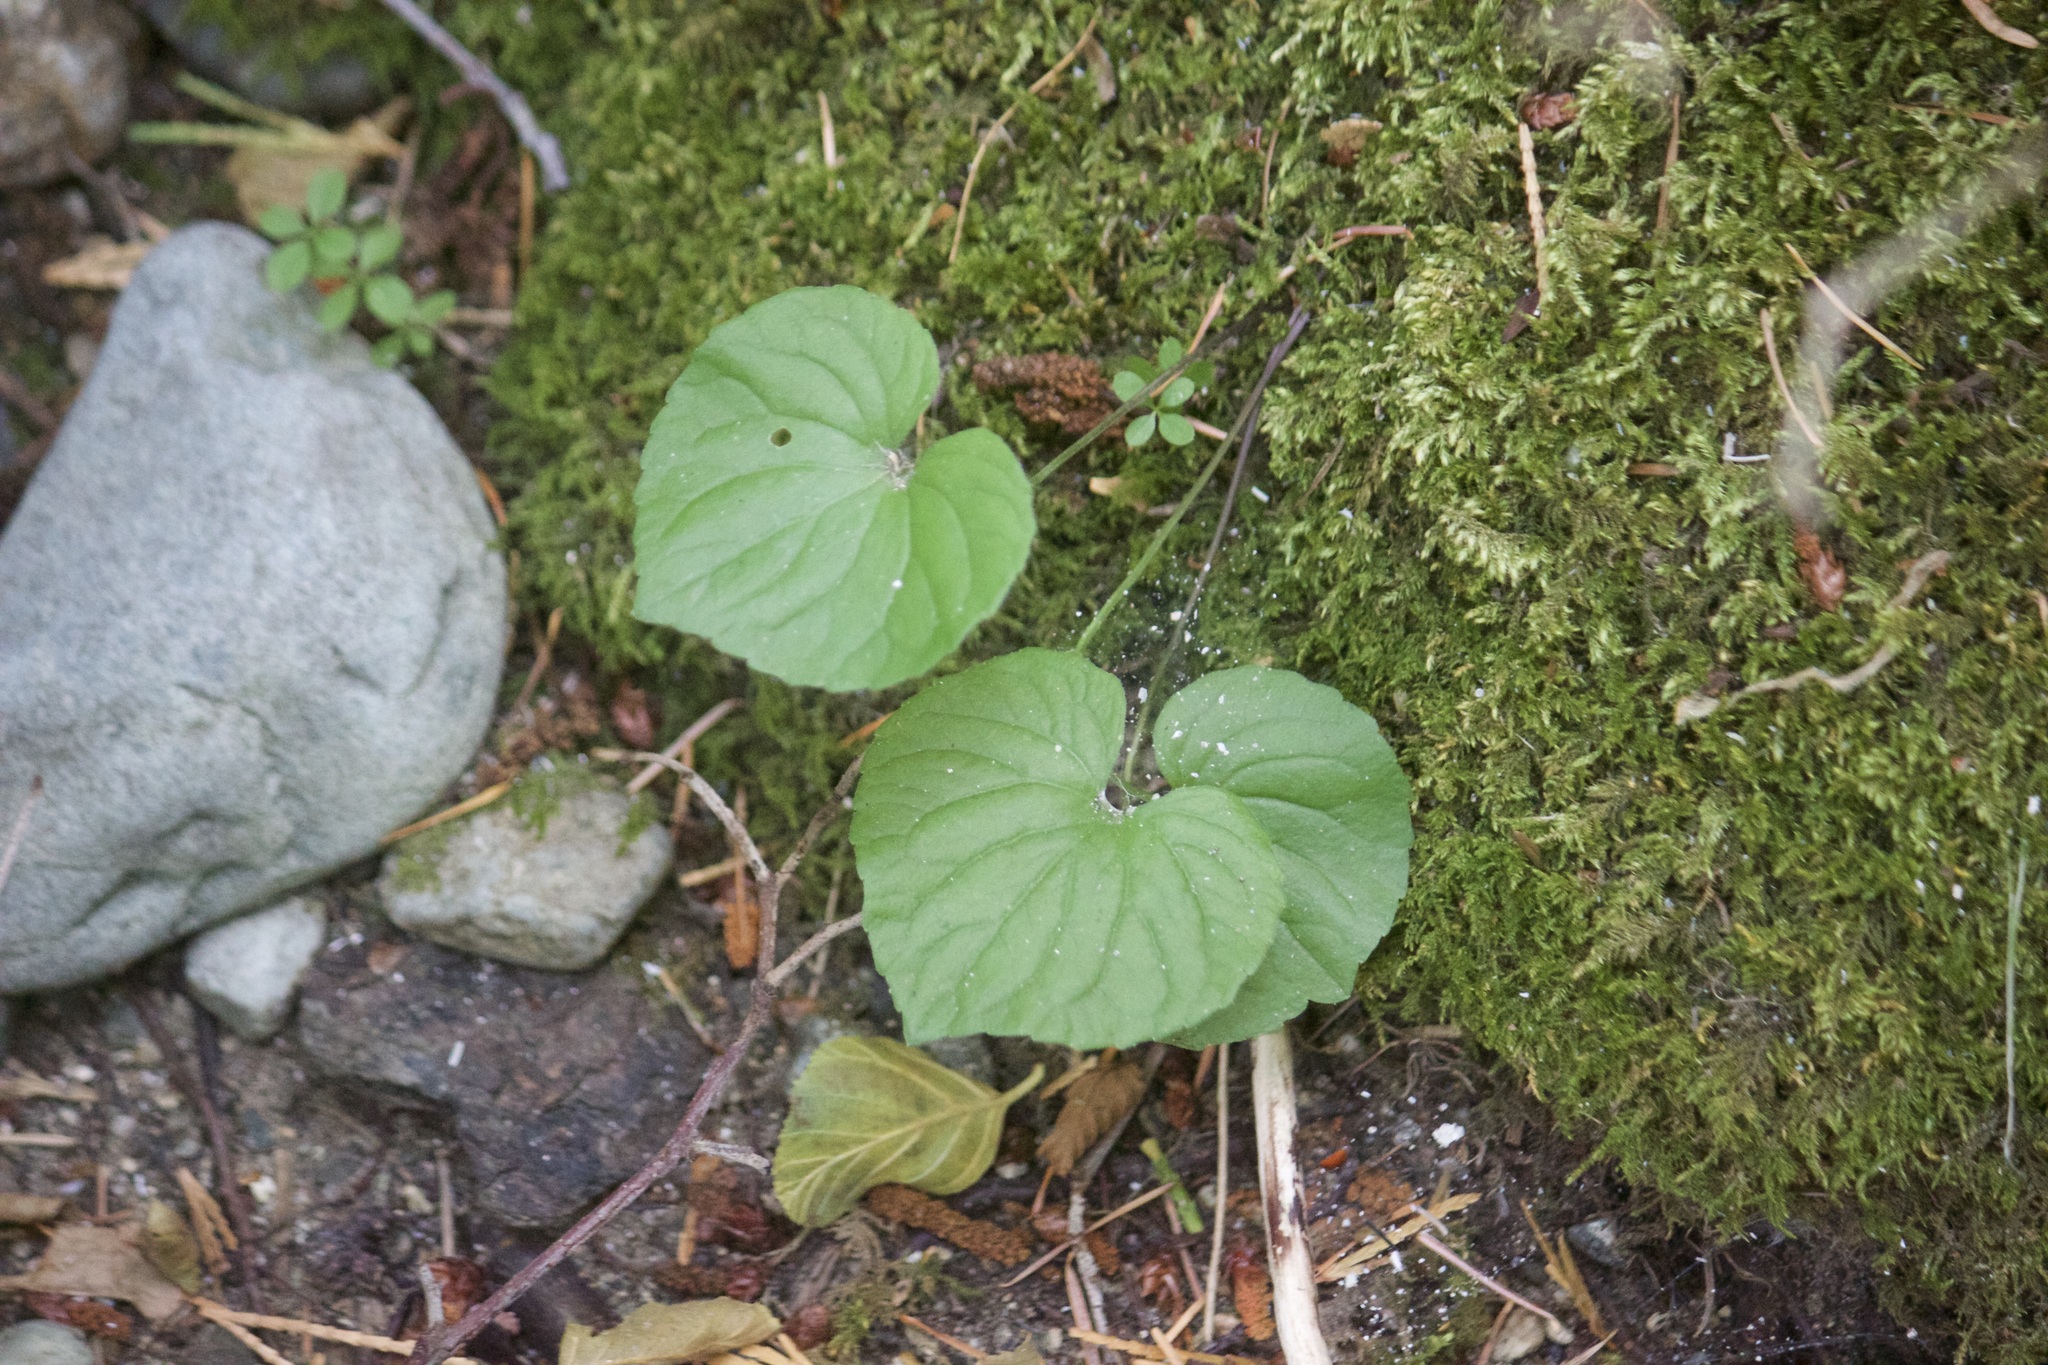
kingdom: Plantae
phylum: Tracheophyta
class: Magnoliopsida
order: Malpighiales
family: Violaceae
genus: Viola
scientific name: Viola glabella
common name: Stream violet
